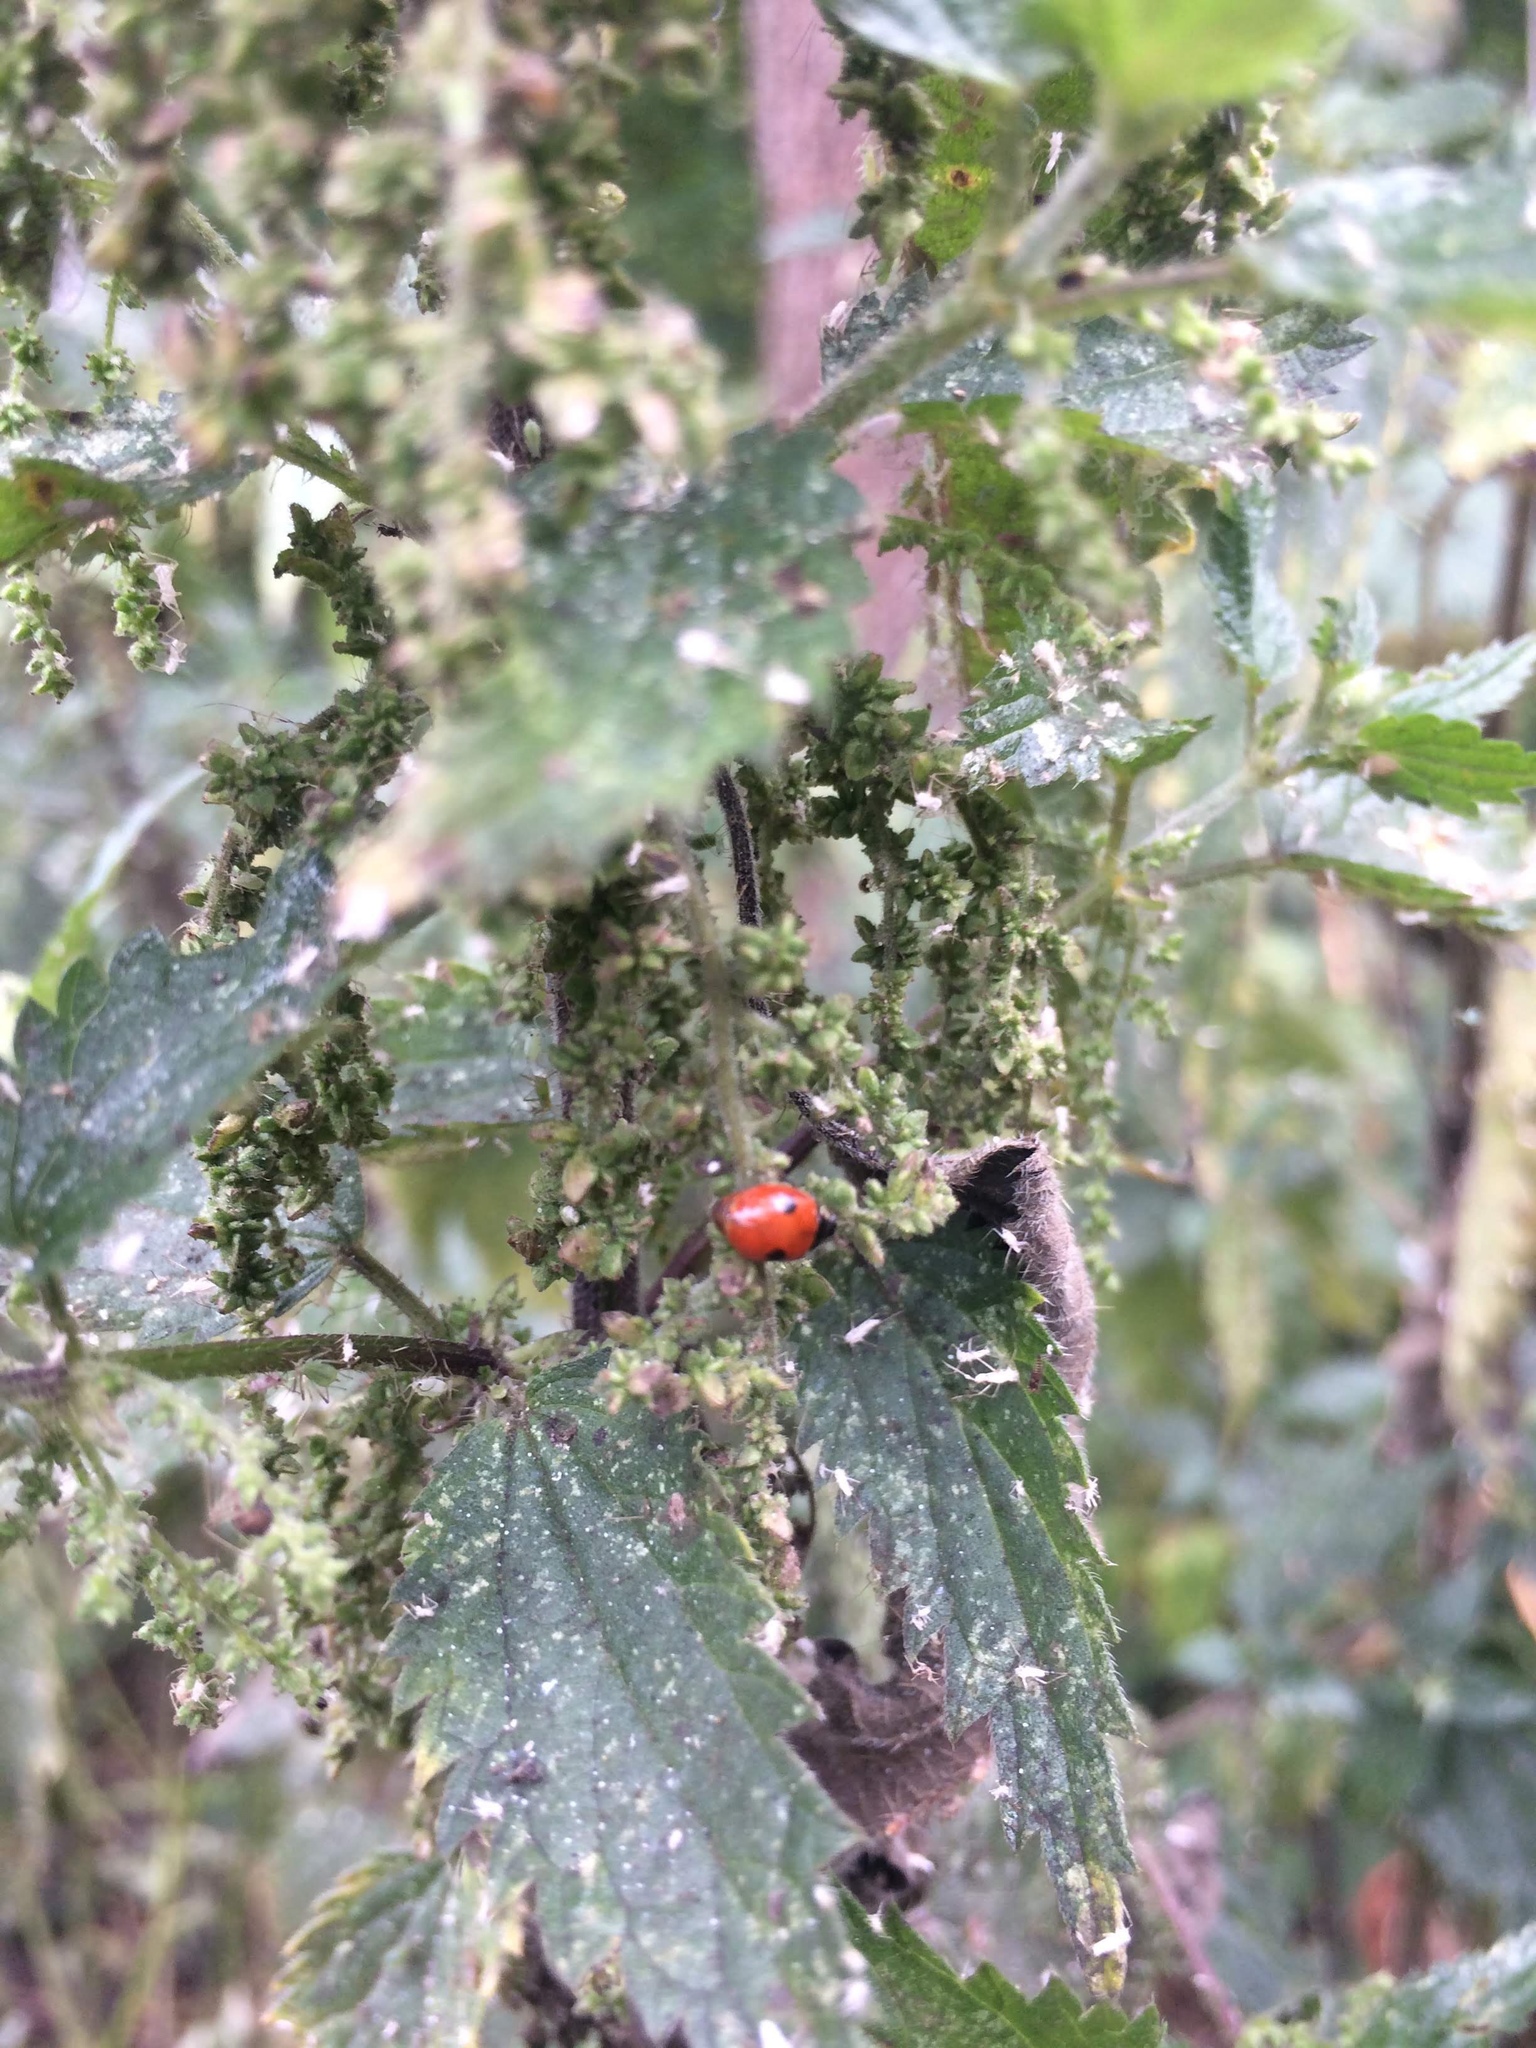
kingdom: Animalia
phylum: Arthropoda
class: Insecta
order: Coleoptera
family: Coccinellidae
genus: Adalia
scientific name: Adalia bipunctata
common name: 2-spot ladybird
